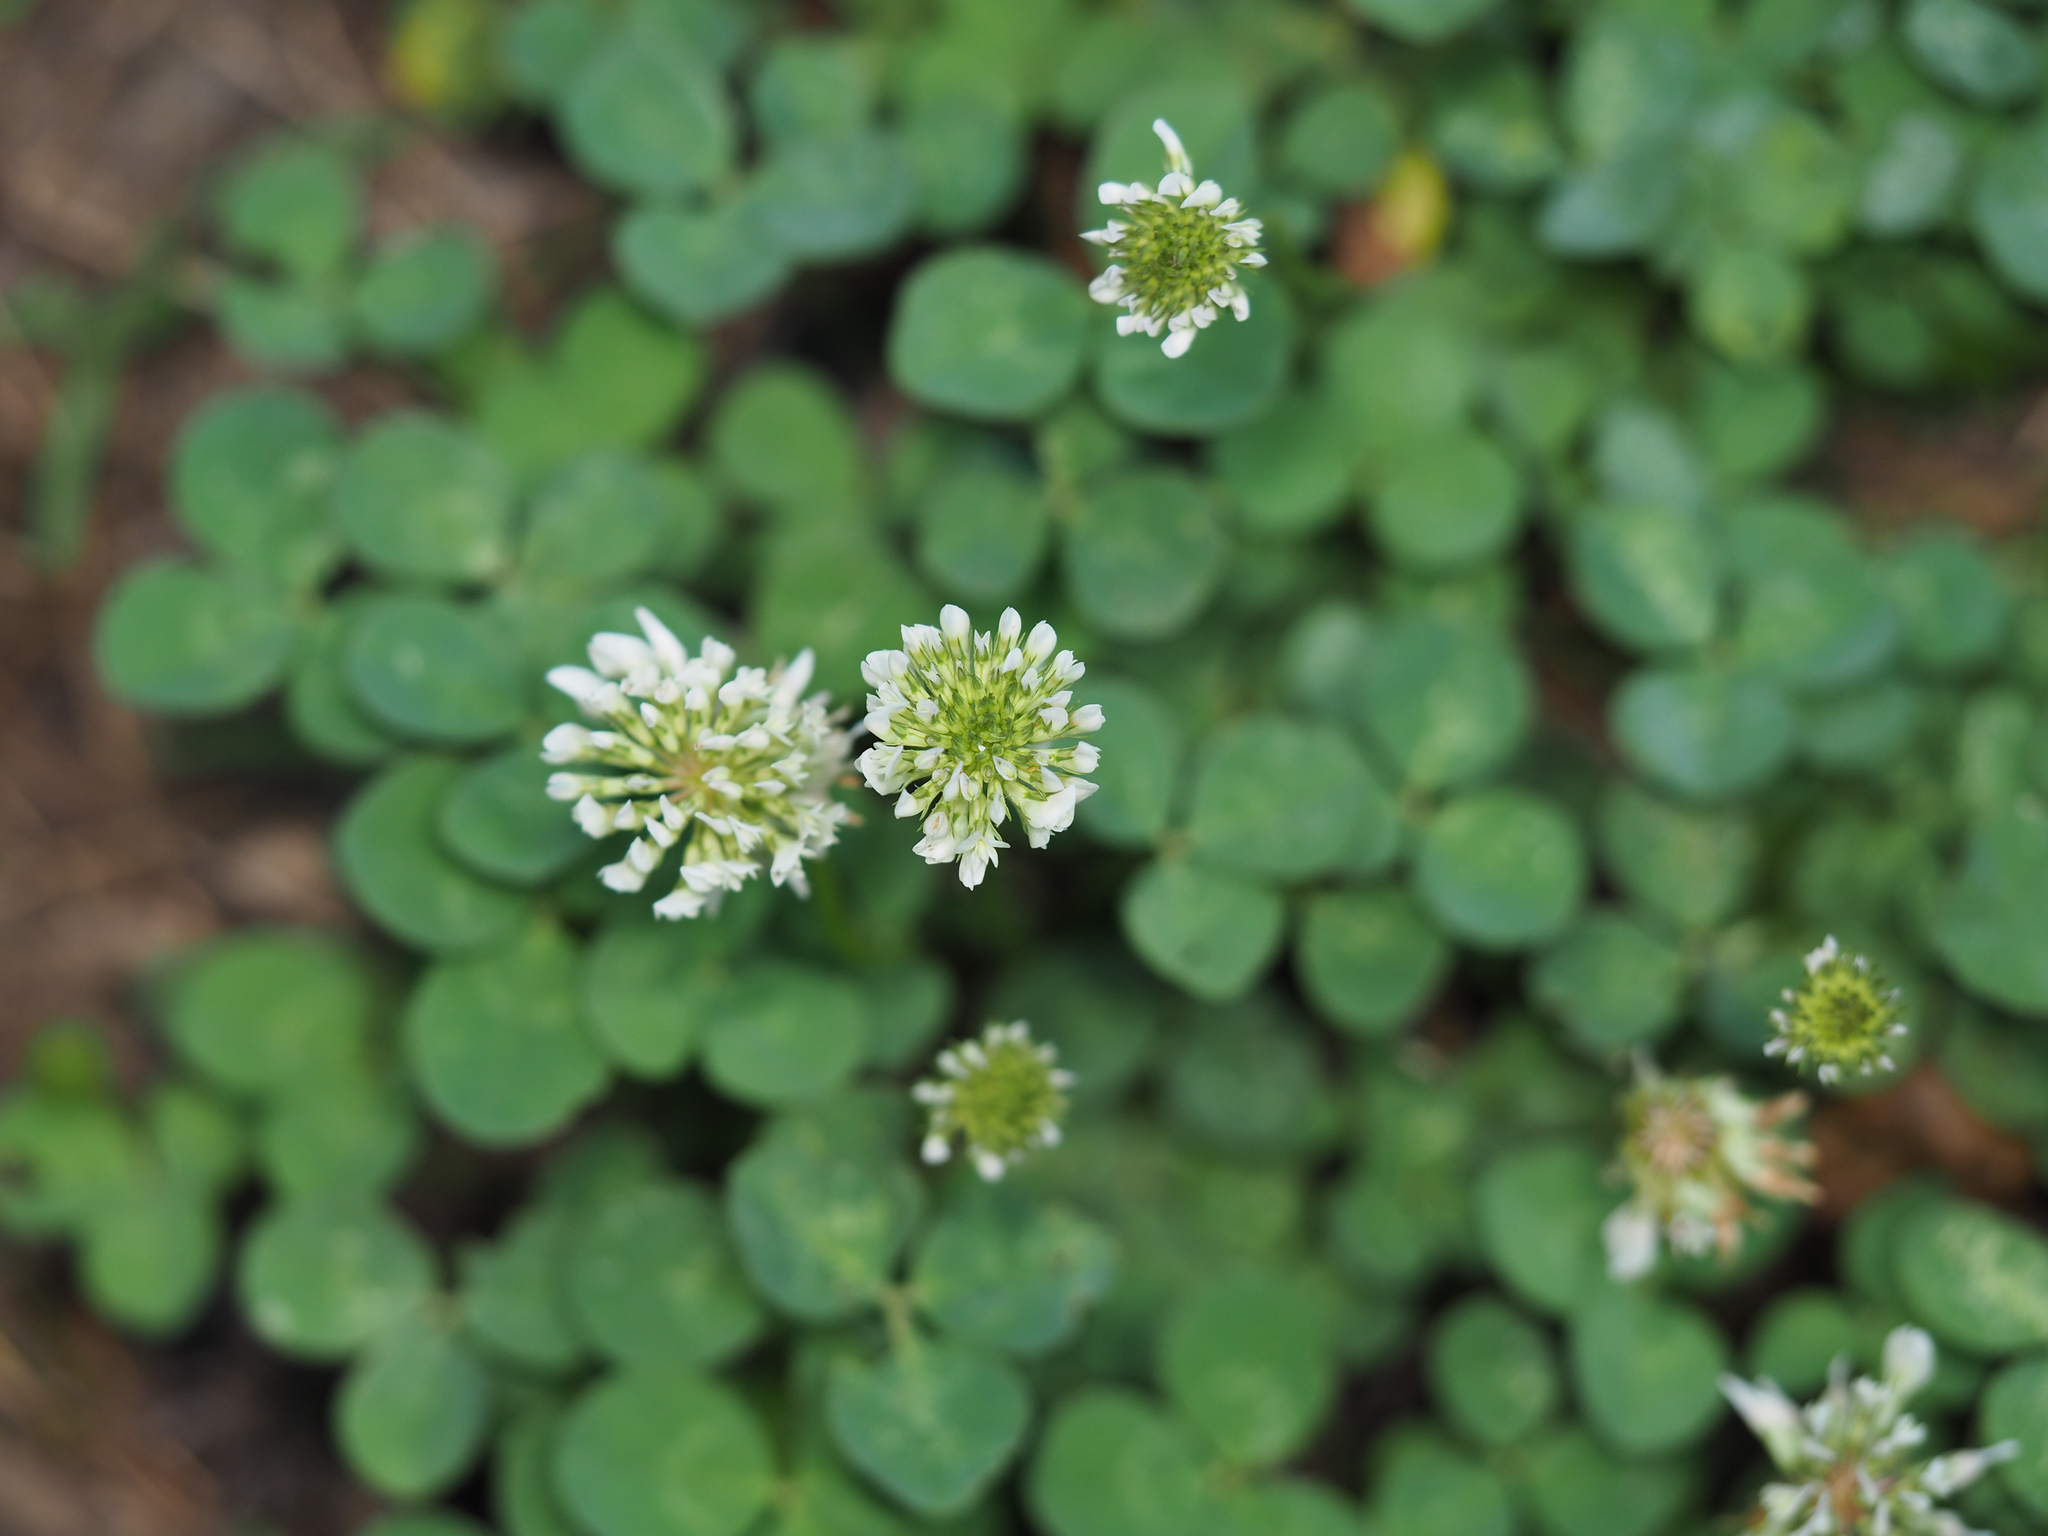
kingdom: Plantae
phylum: Tracheophyta
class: Magnoliopsida
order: Fabales
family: Fabaceae
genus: Trifolium
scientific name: Trifolium repens
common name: White clover
